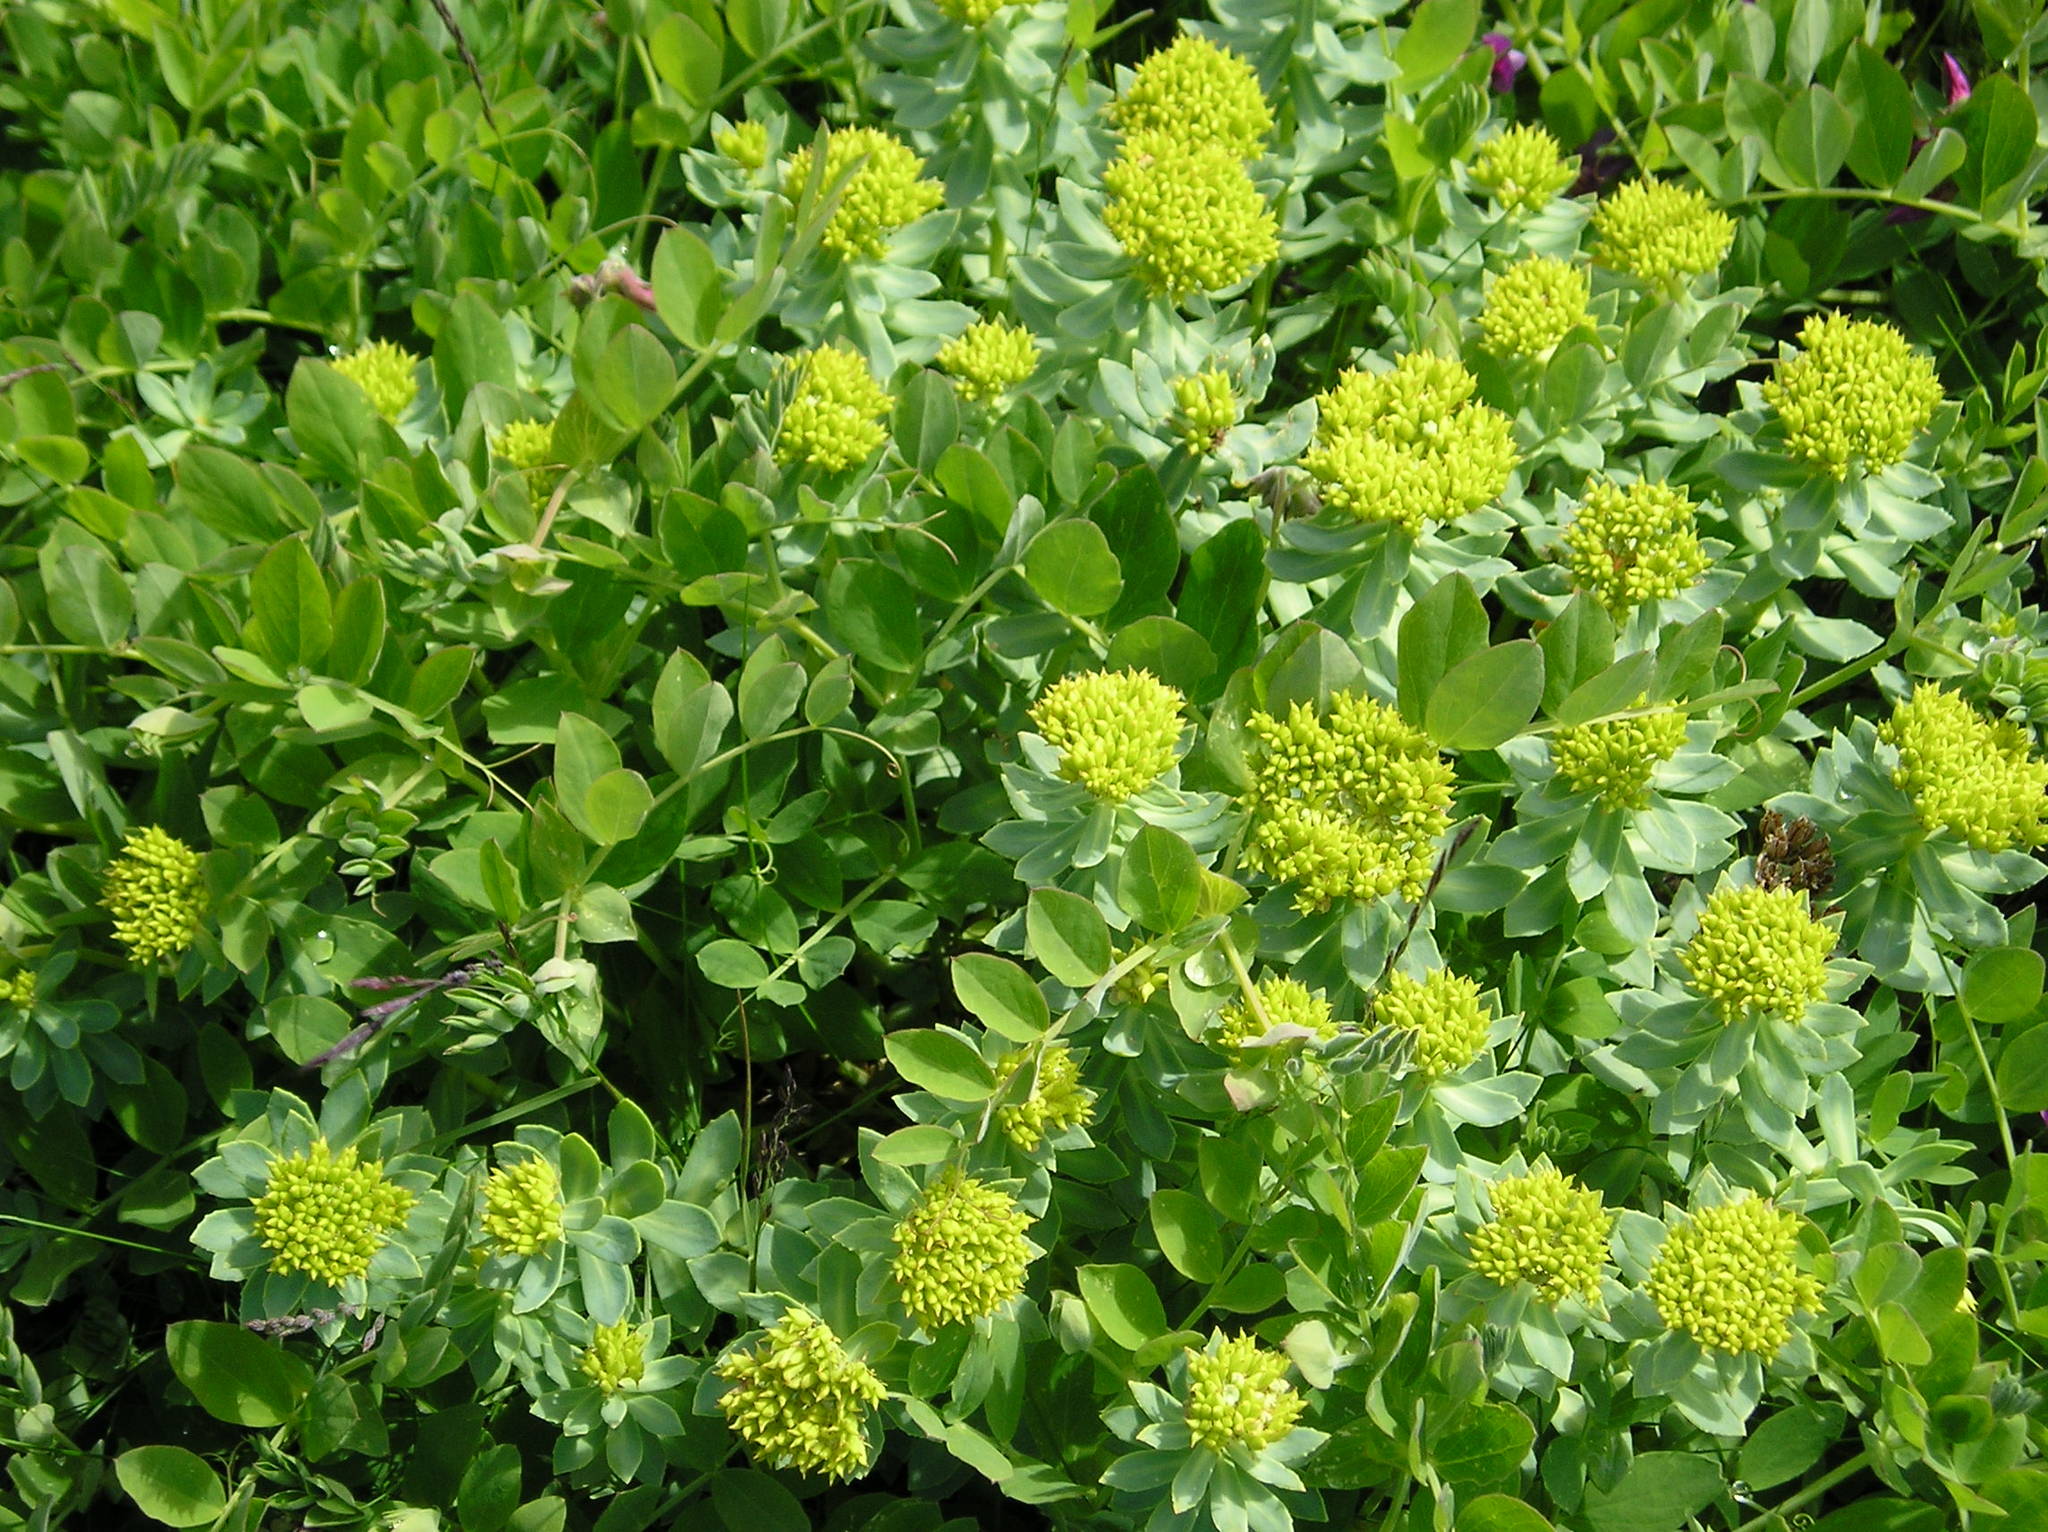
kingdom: Plantae
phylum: Tracheophyta
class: Magnoliopsida
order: Saxifragales
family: Crassulaceae
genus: Rhodiola
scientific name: Rhodiola rosea
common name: Roseroot
